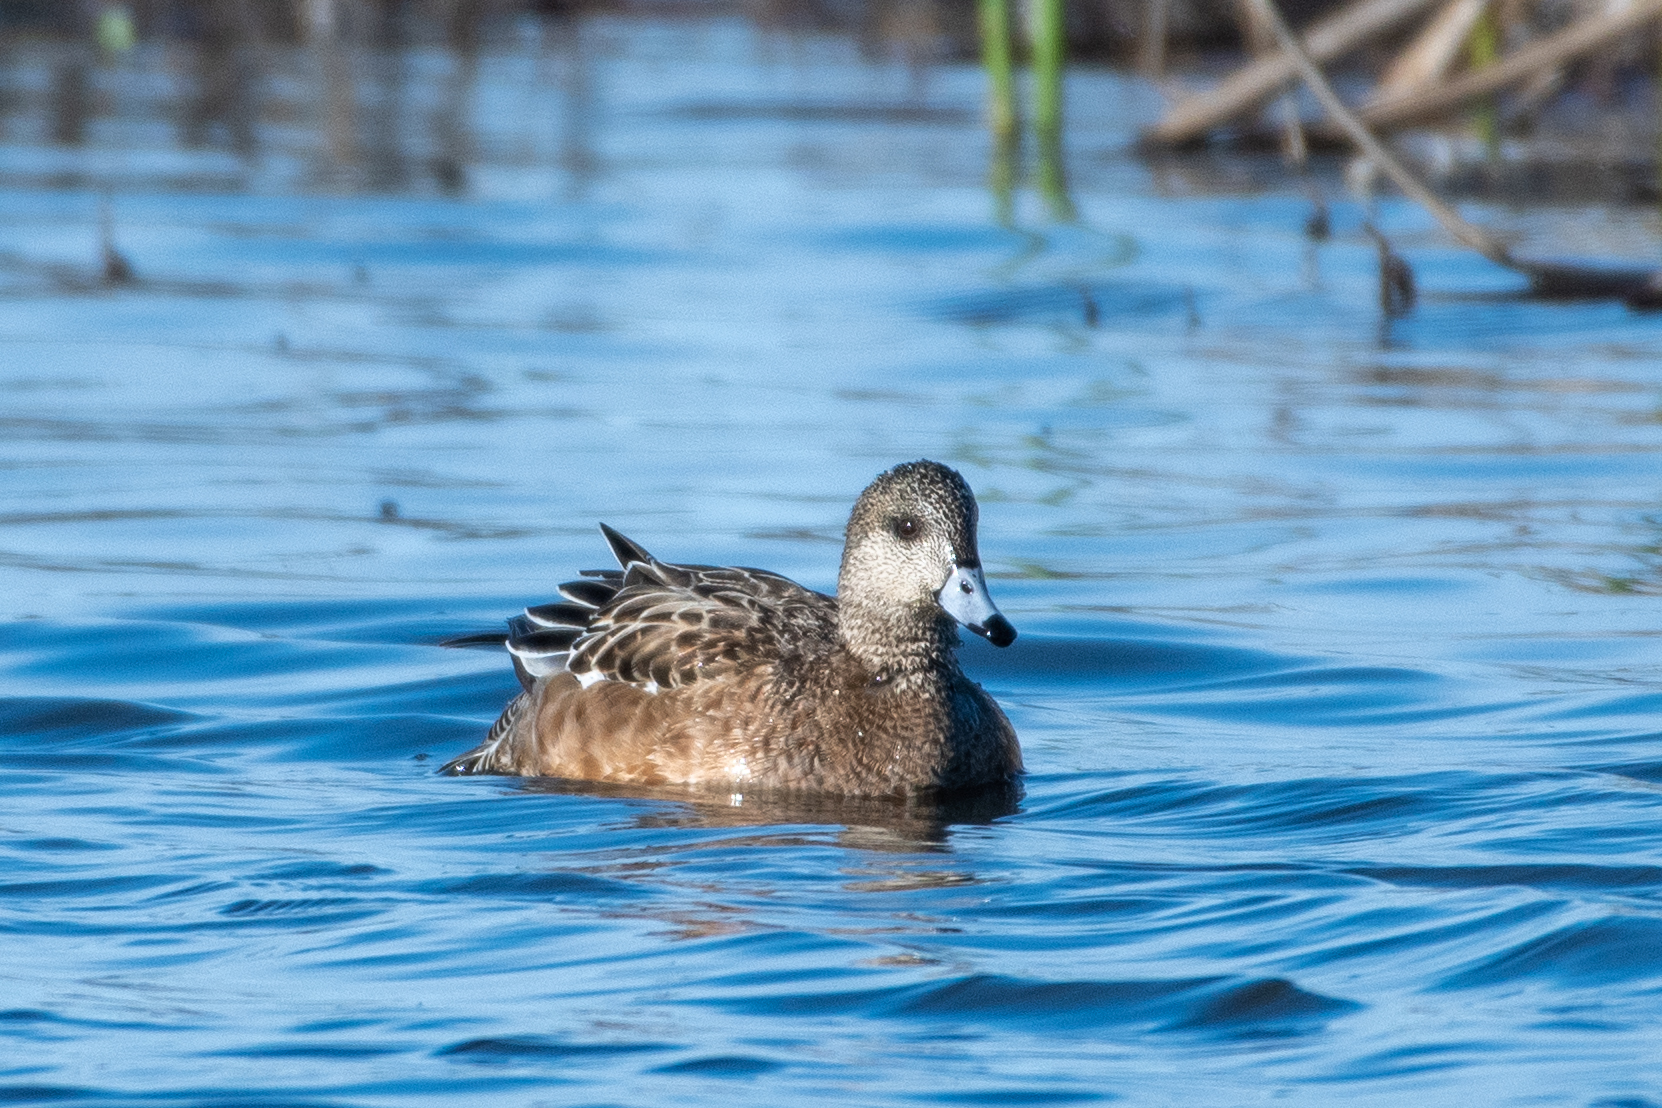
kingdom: Animalia
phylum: Chordata
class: Aves
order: Anseriformes
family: Anatidae
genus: Mareca
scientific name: Mareca americana
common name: American wigeon
